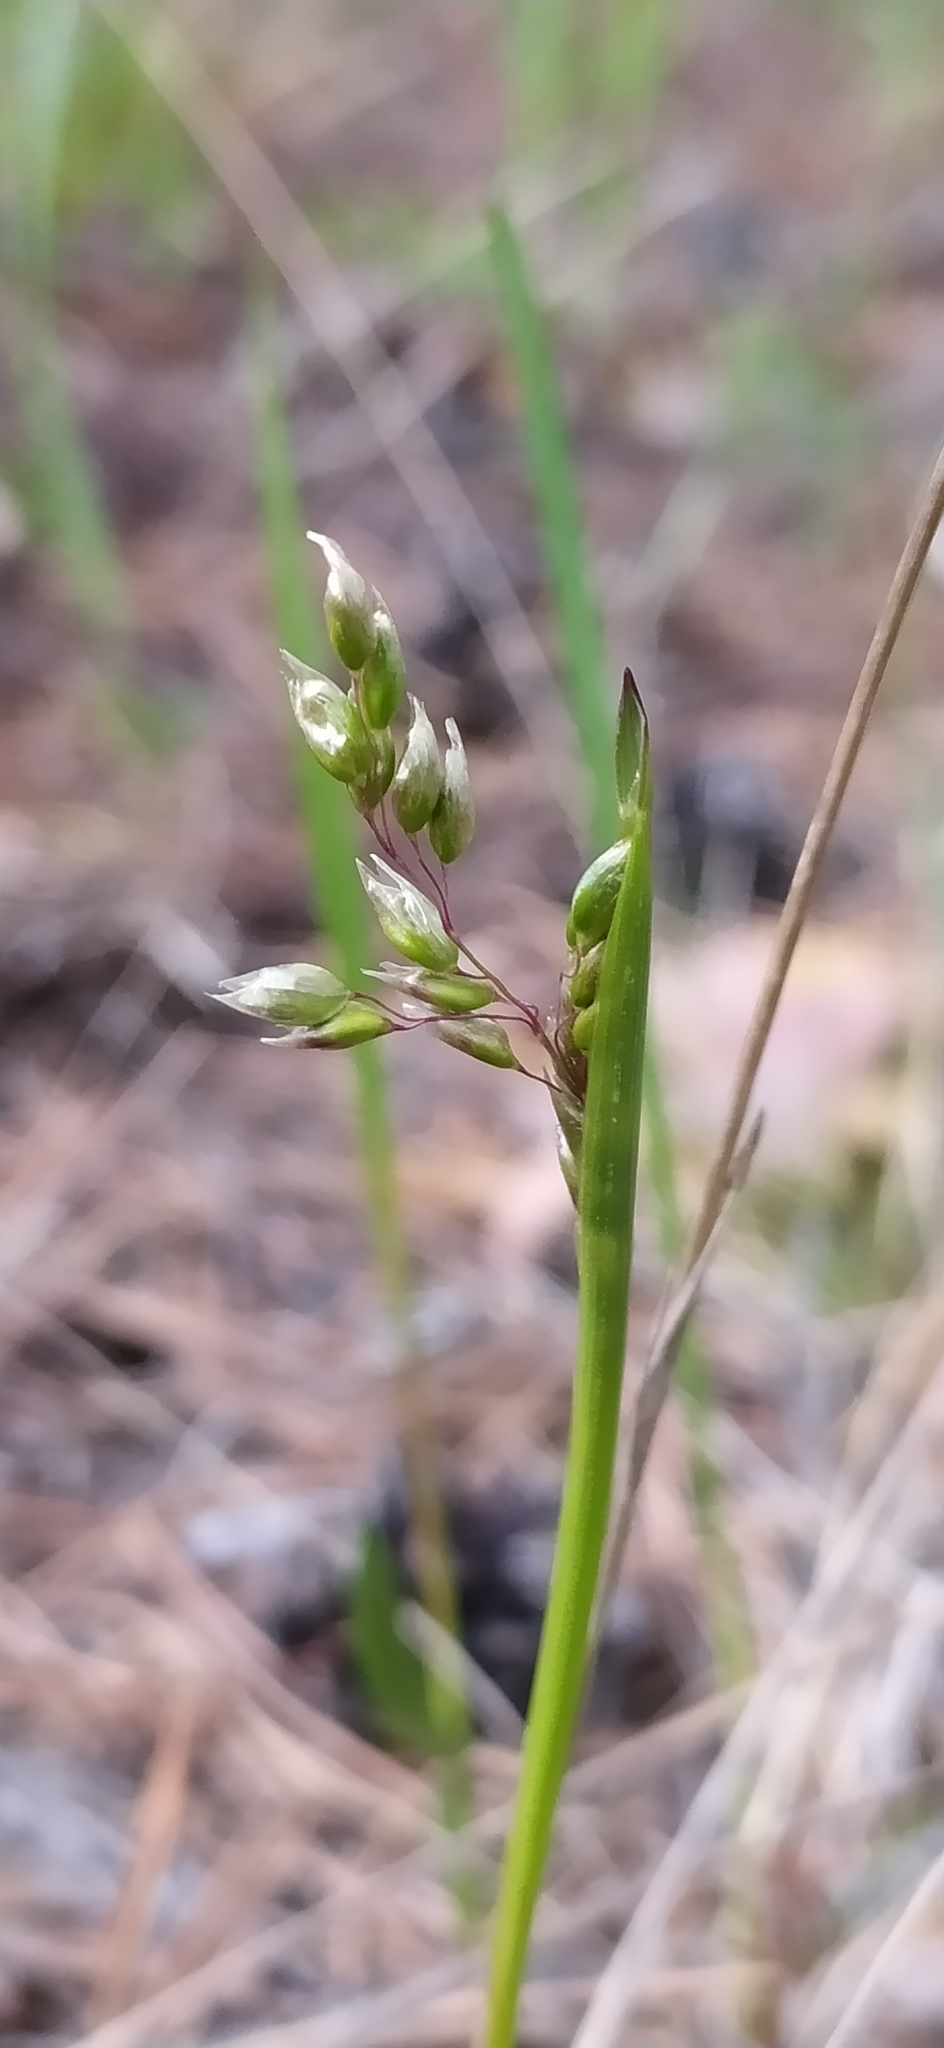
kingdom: Plantae
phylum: Tracheophyta
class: Liliopsida
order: Poales
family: Poaceae
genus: Anthoxanthum
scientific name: Anthoxanthum nitens
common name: Holy grass
